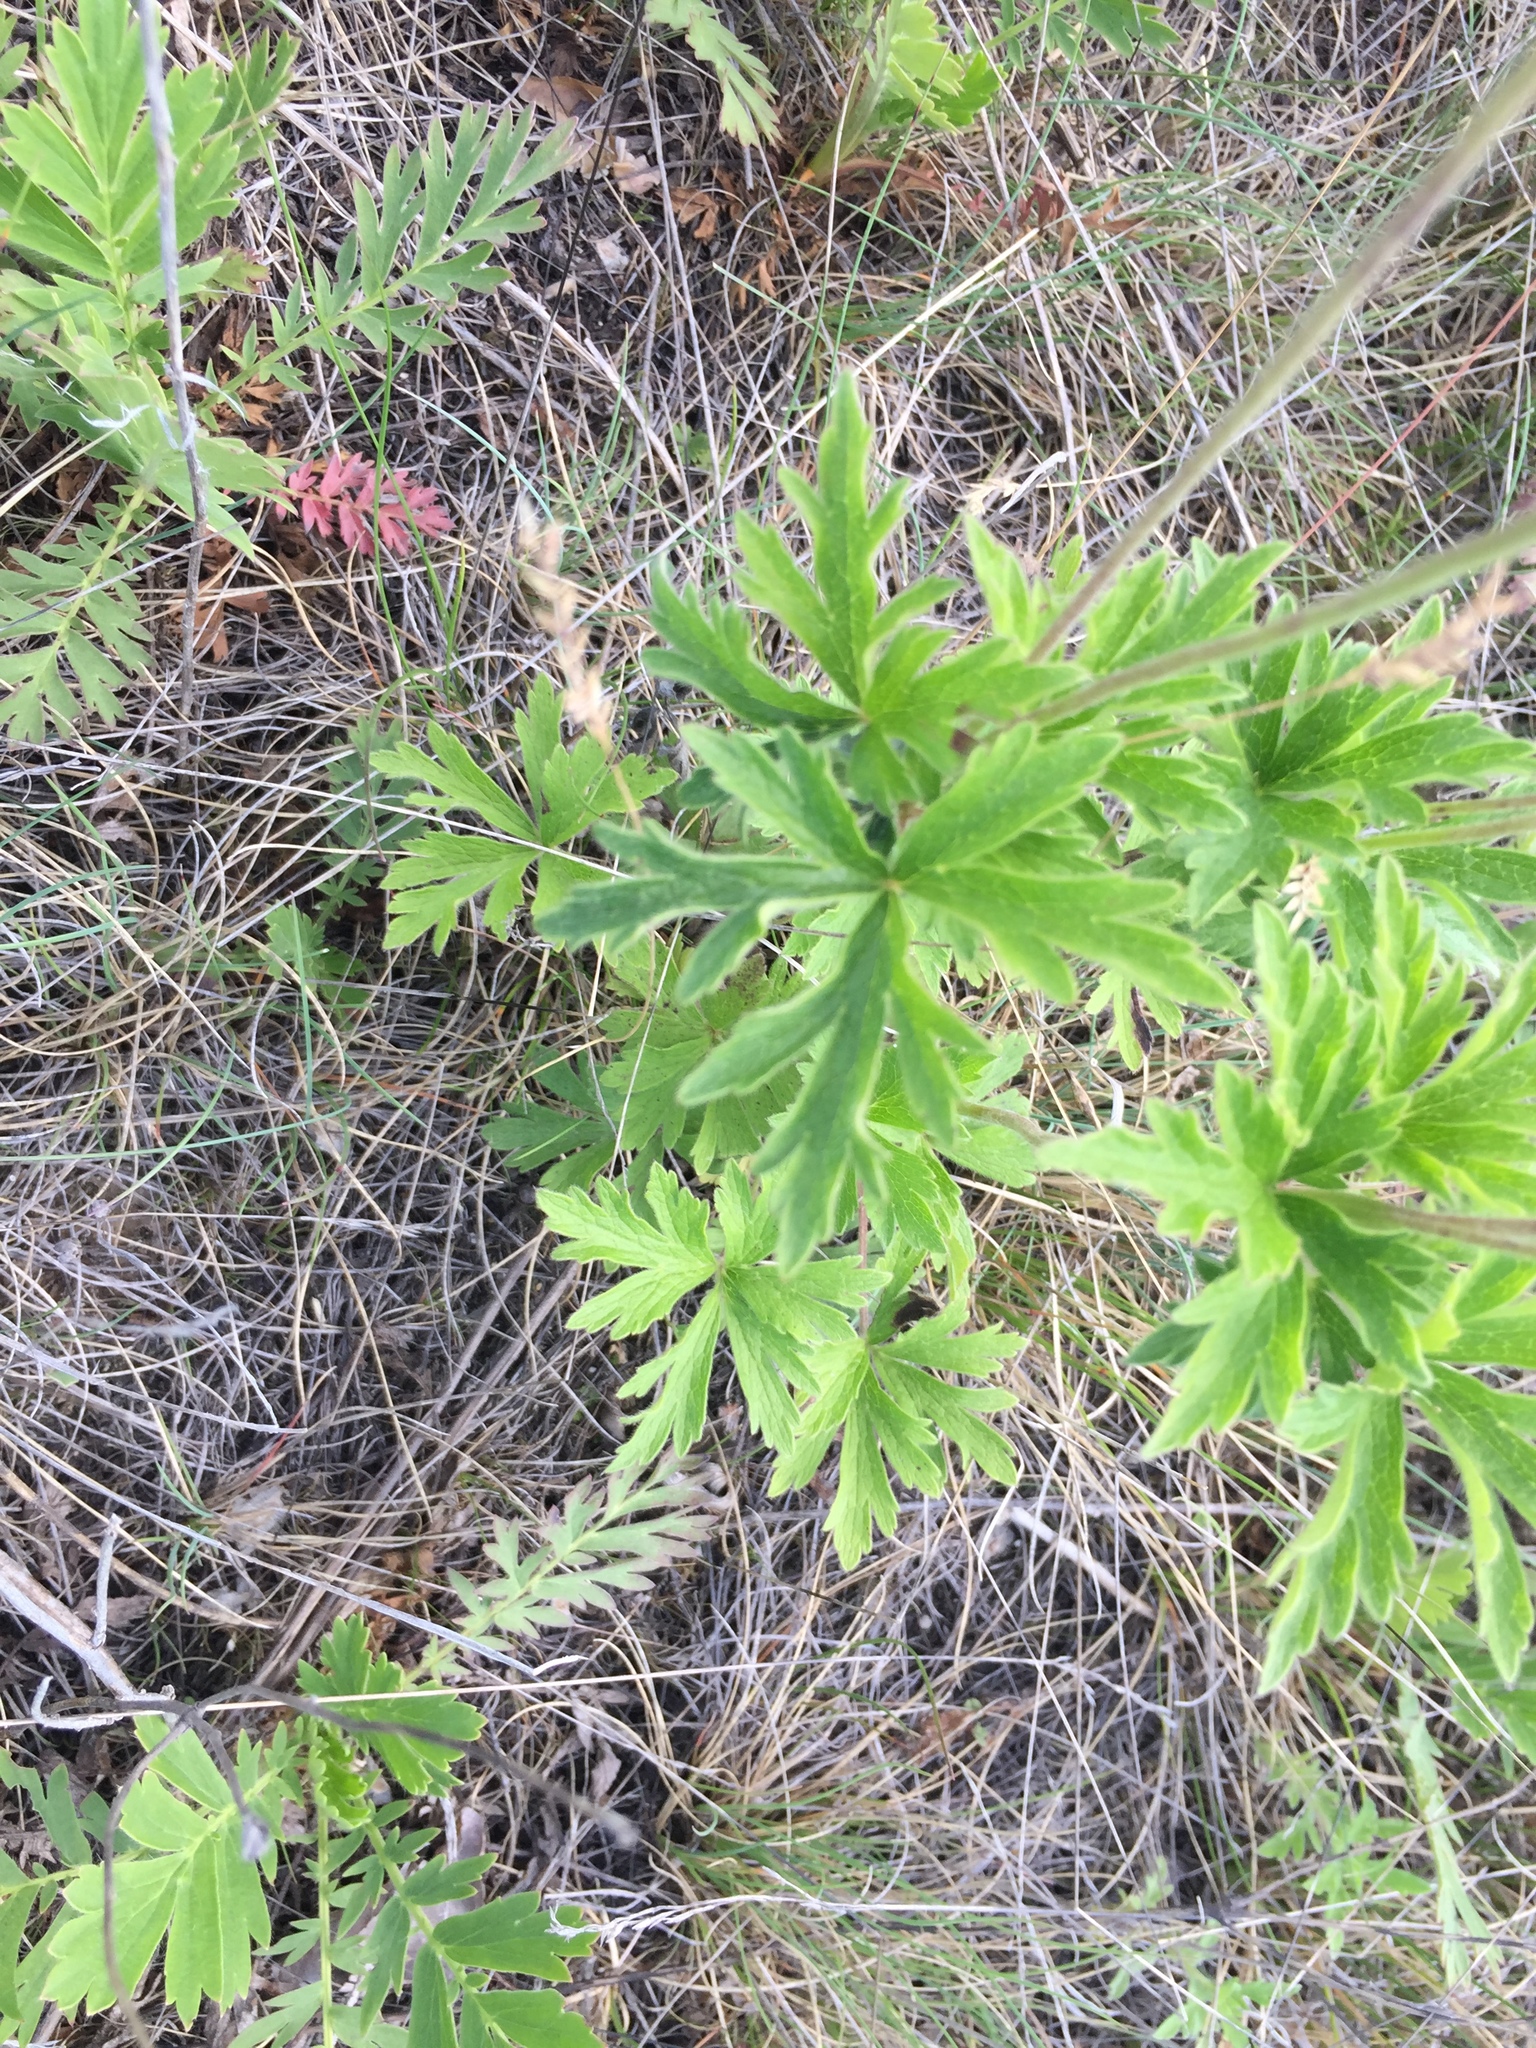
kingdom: Plantae
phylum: Tracheophyta
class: Magnoliopsida
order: Ranunculales
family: Ranunculaceae
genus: Anemone
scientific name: Anemone cylindrica
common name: Candle anemone
